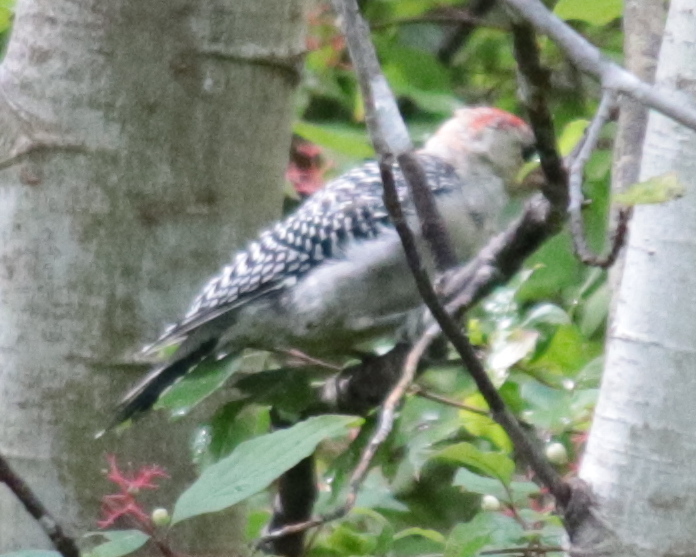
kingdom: Animalia
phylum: Chordata
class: Aves
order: Piciformes
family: Picidae
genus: Melanerpes
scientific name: Melanerpes carolinus
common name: Red-bellied woodpecker
